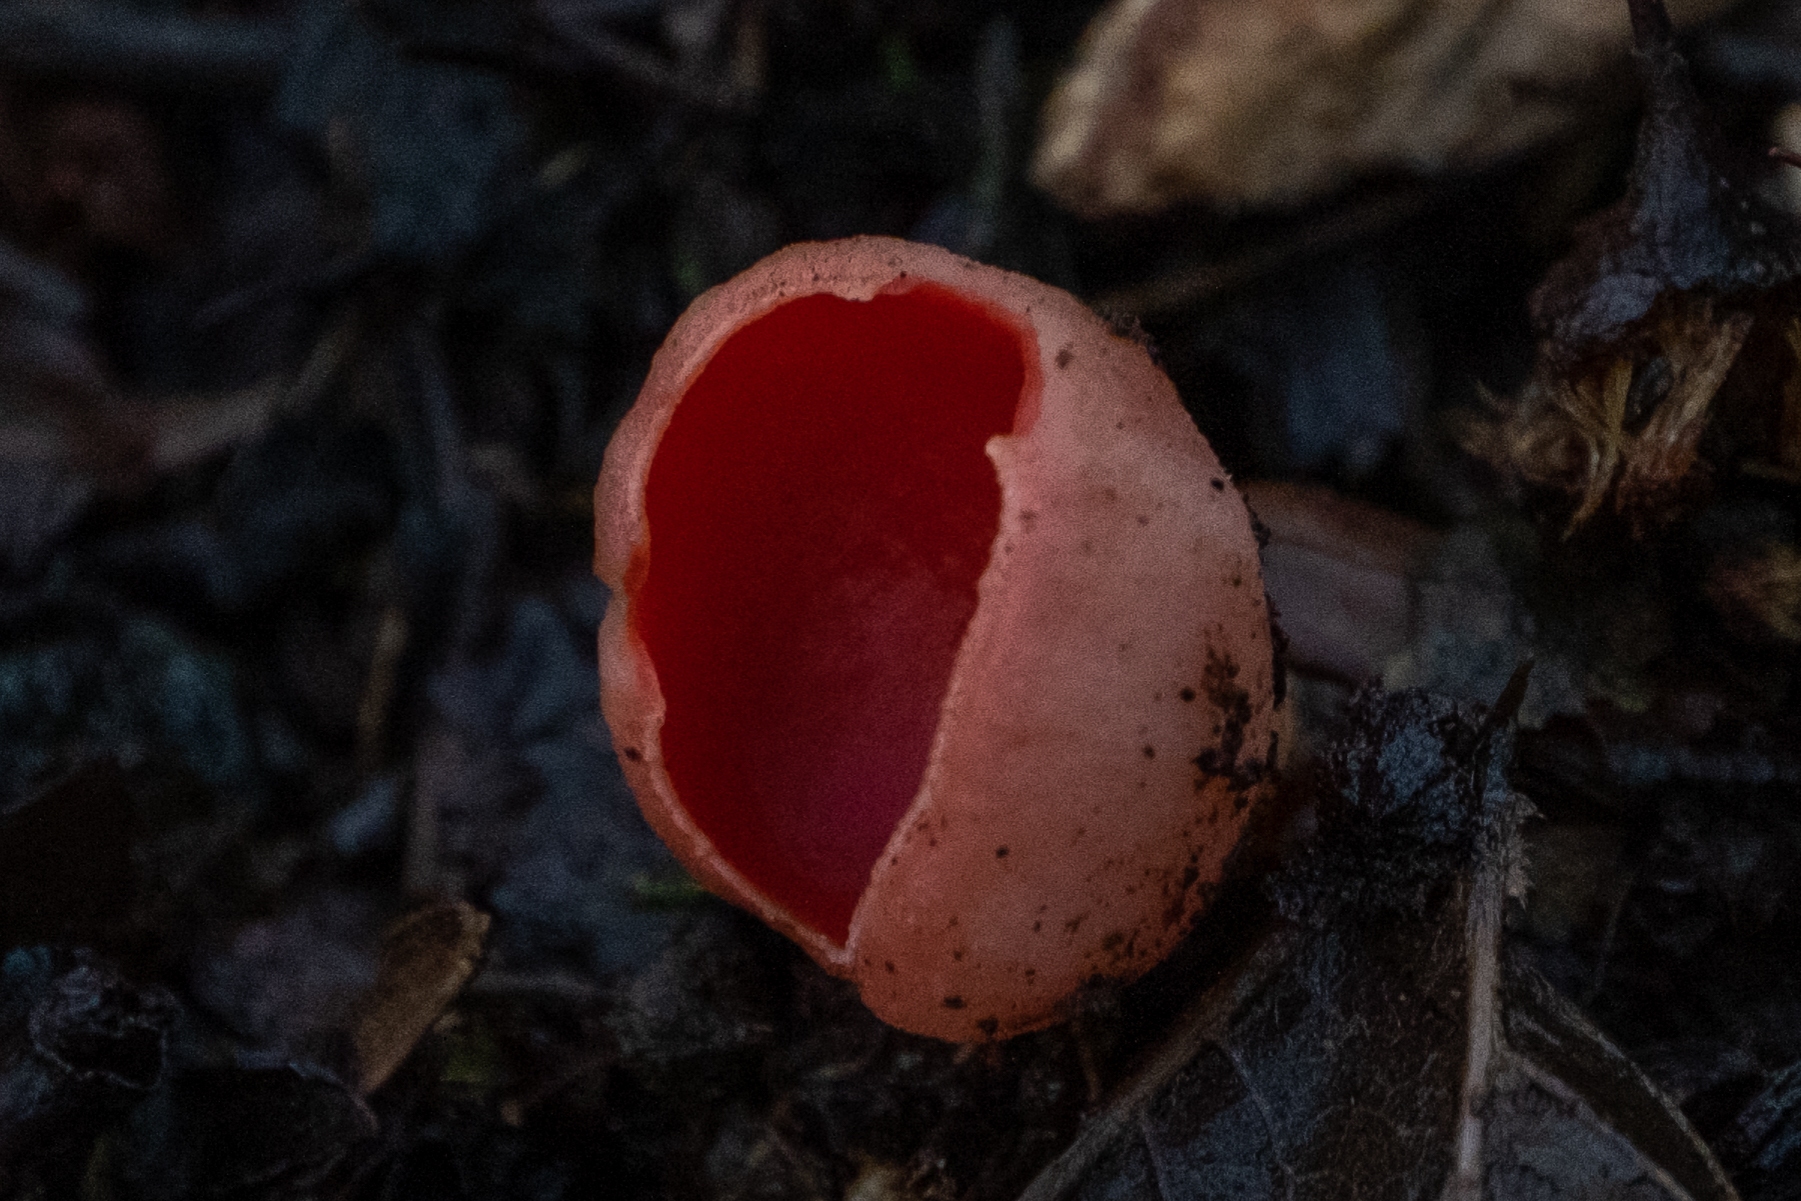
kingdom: Fungi
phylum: Ascomycota
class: Pezizomycetes
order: Pezizales
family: Sarcoscyphaceae
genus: Sarcoscypha
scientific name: Sarcoscypha
